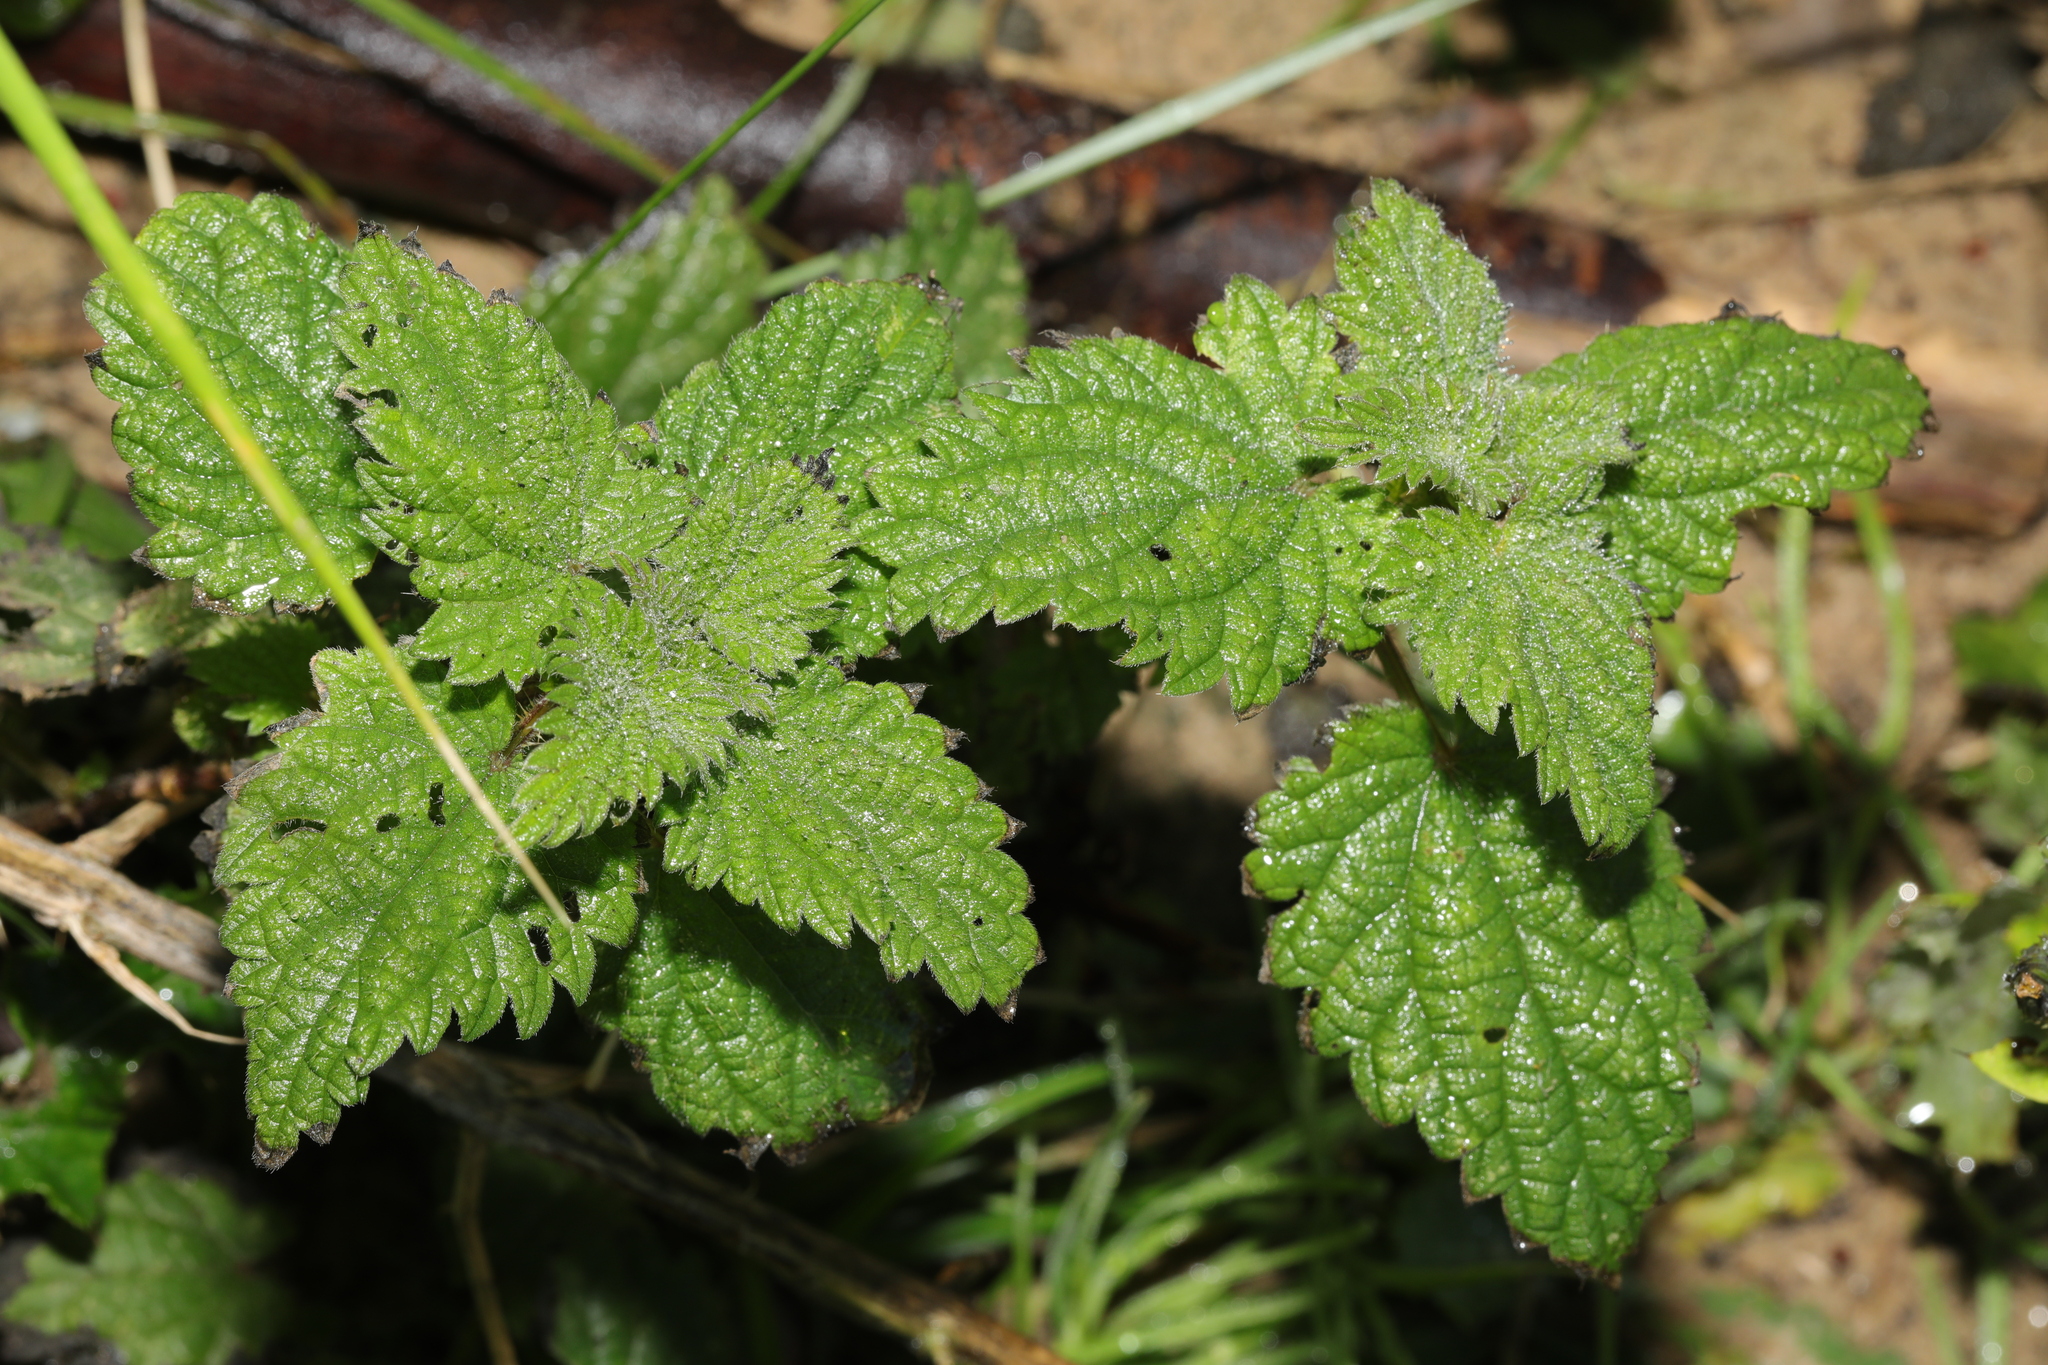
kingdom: Plantae
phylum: Tracheophyta
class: Magnoliopsida
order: Rosales
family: Urticaceae
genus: Urtica
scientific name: Urtica dioica
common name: Common nettle
